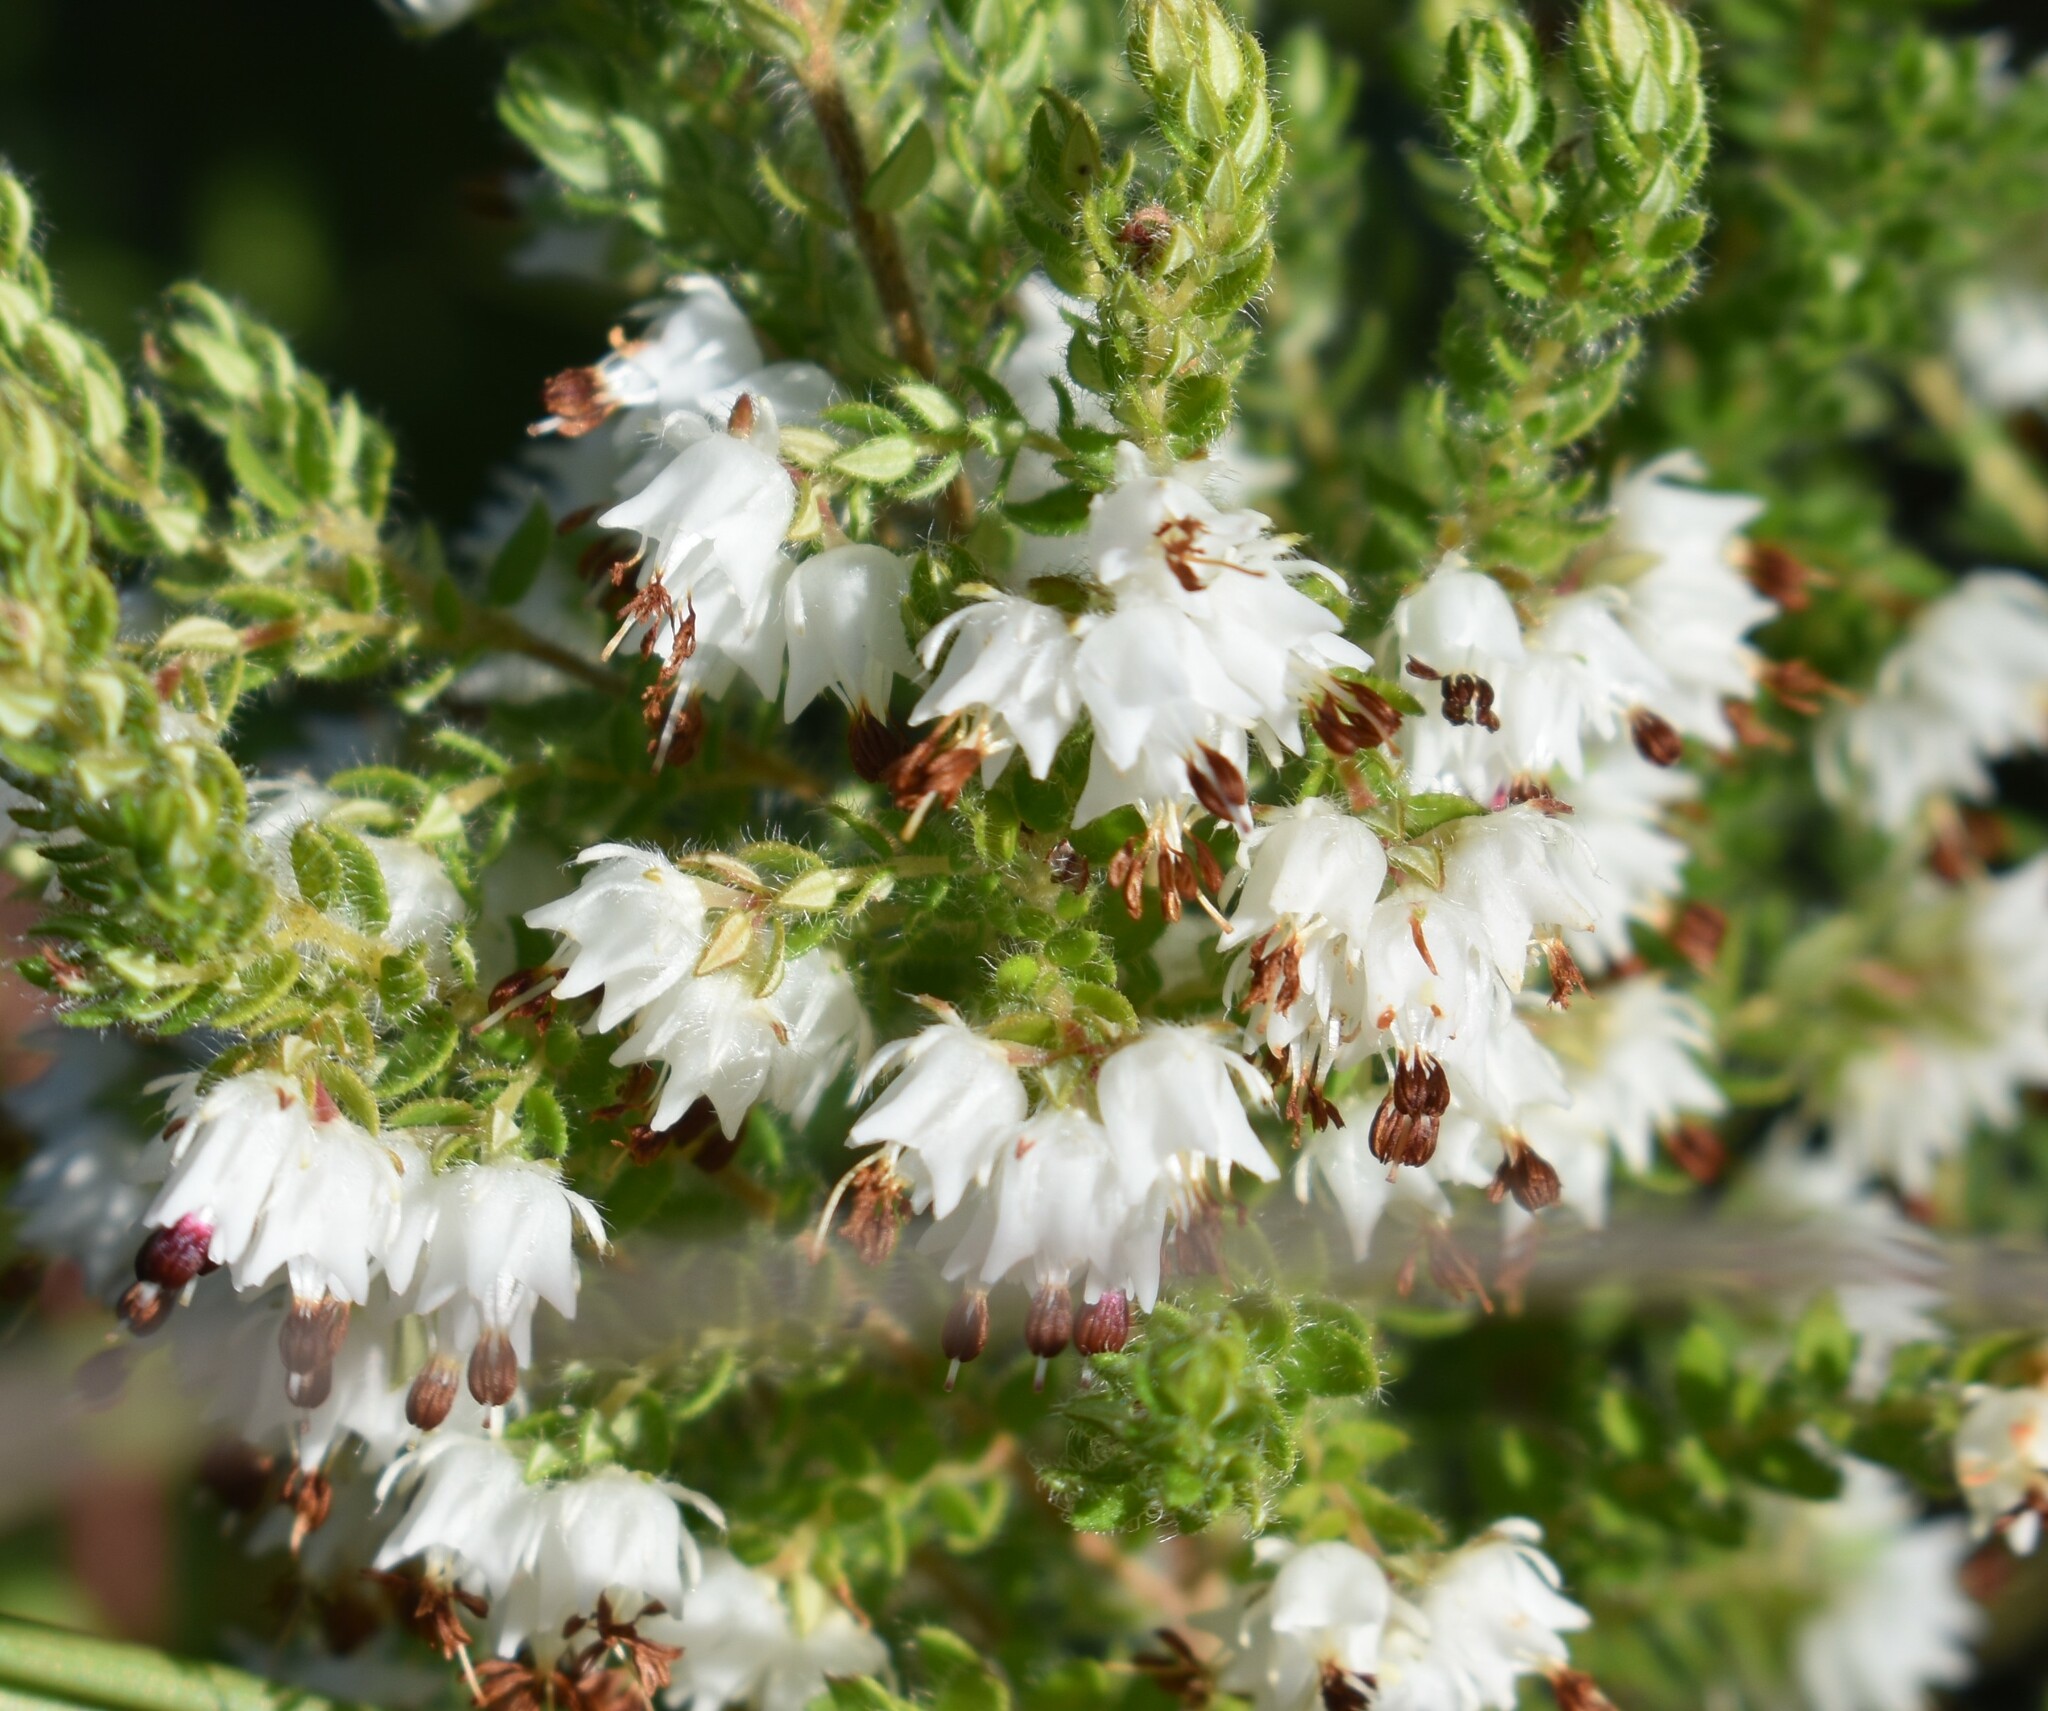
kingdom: Plantae
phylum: Tracheophyta
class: Magnoliopsida
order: Ericales
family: Ericaceae
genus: Erica
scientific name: Erica lehmannii
